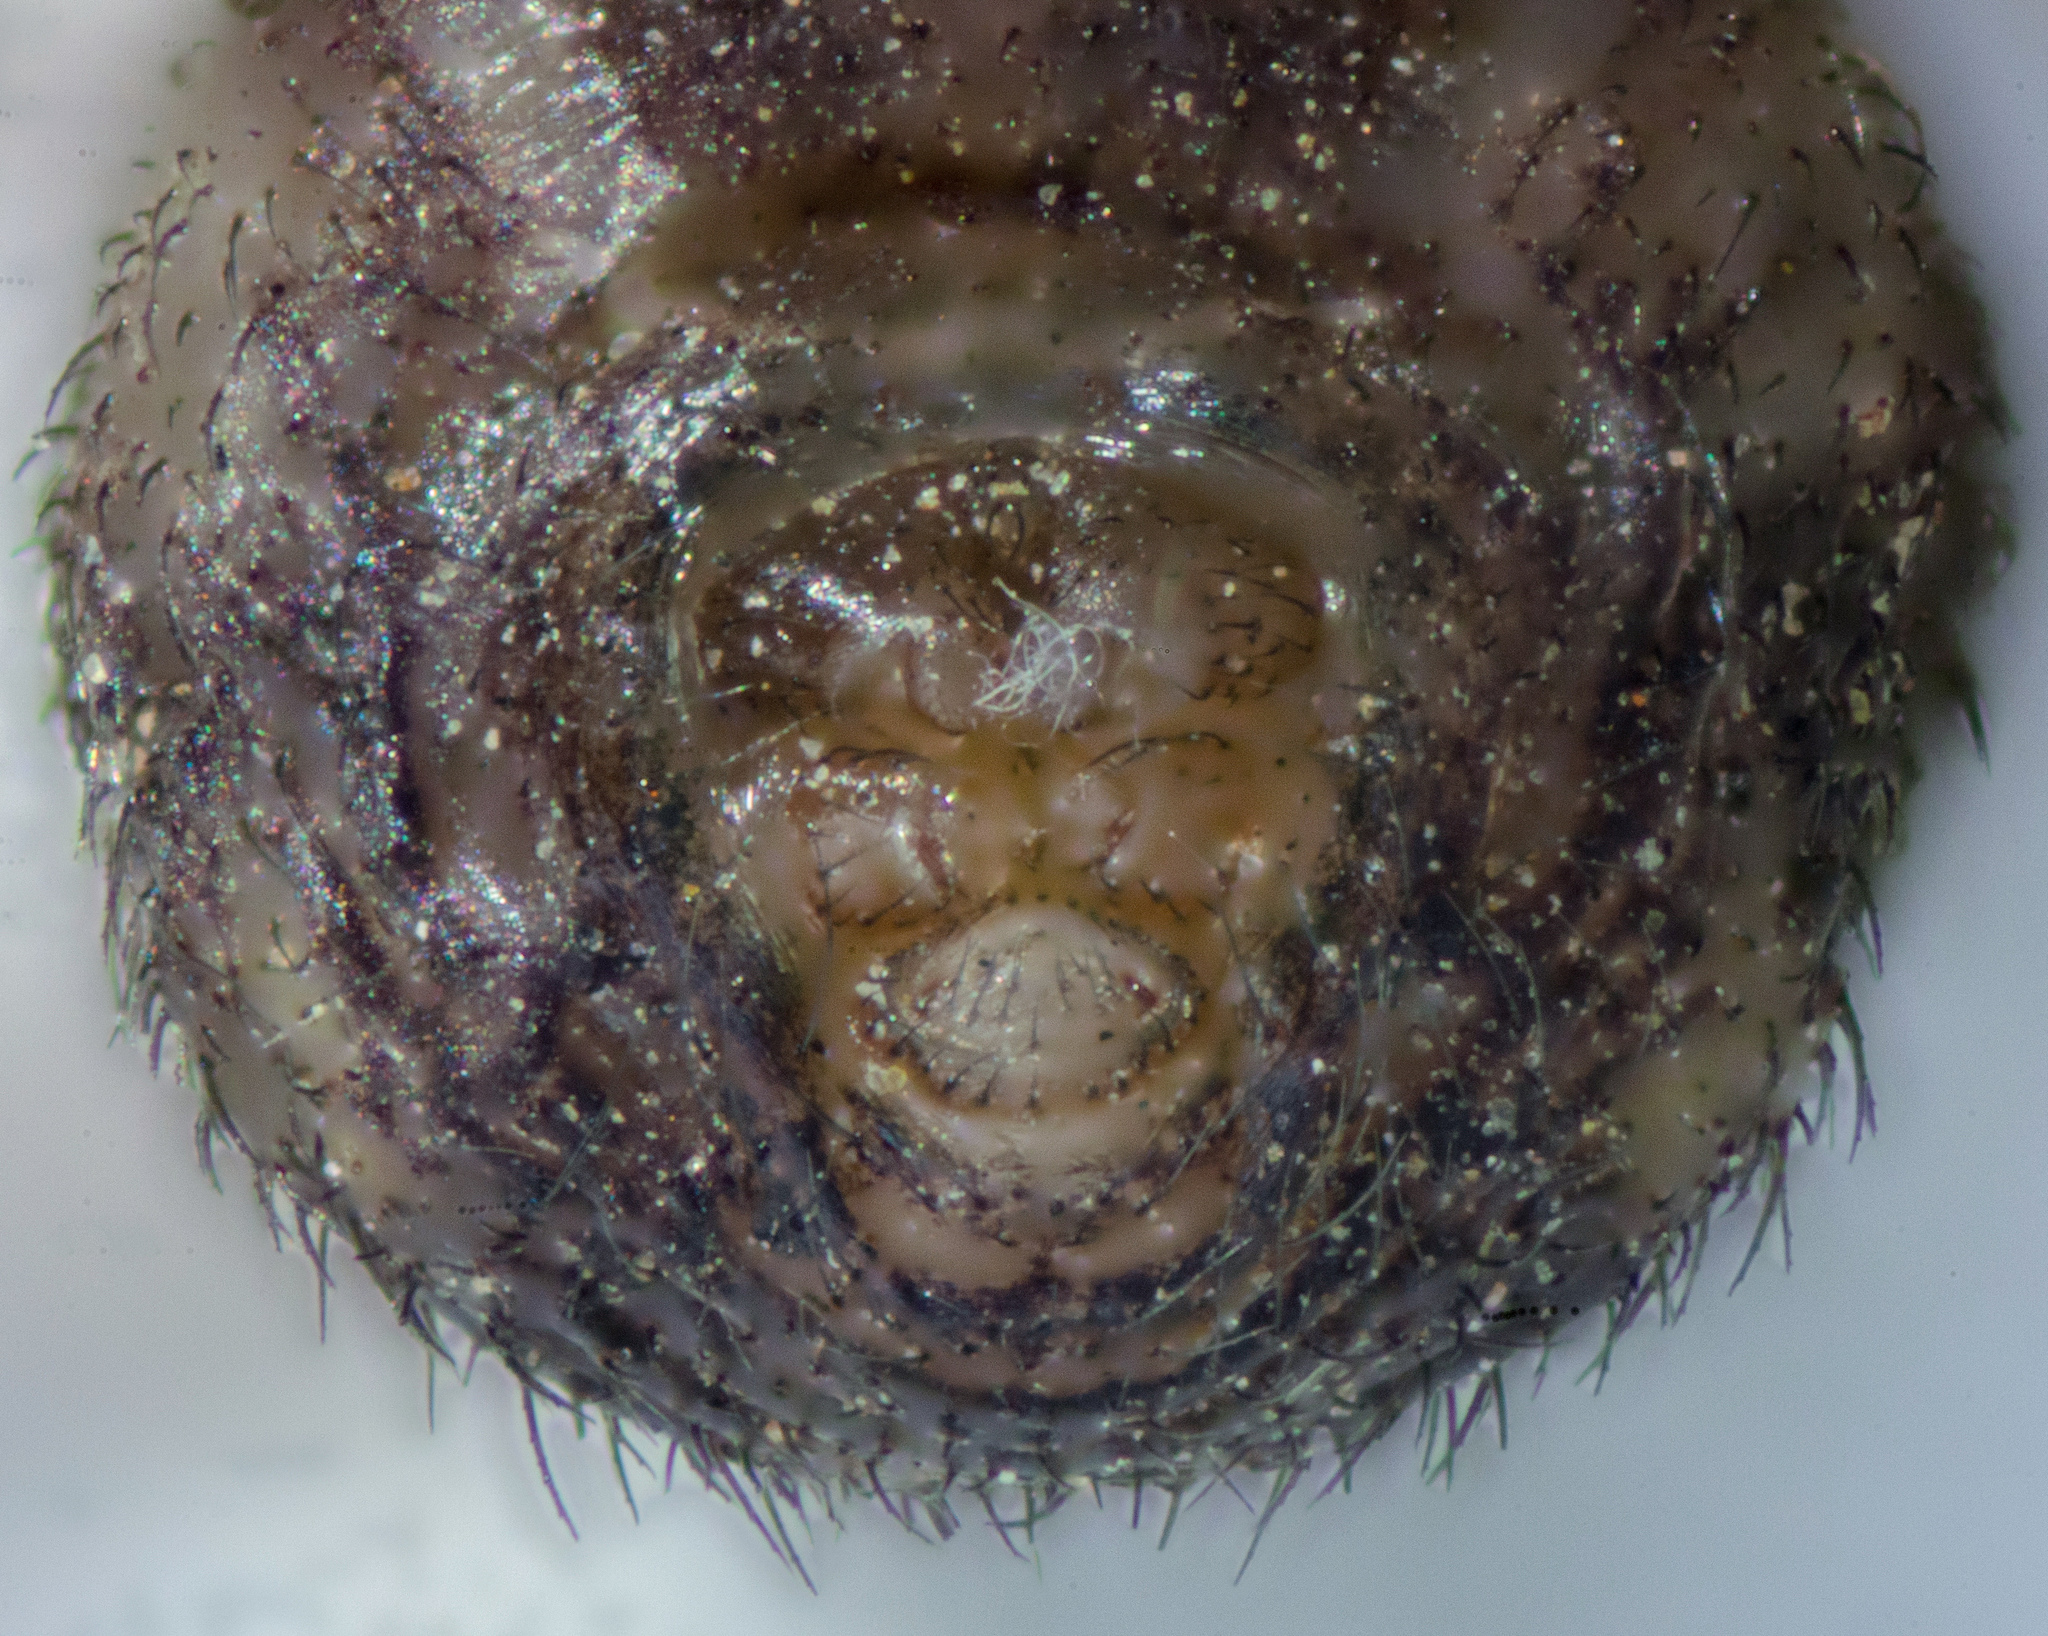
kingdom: Animalia
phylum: Arthropoda
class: Arachnida
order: Araneae
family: Theridiidae
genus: Steatoda
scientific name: Steatoda grossa
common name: False black widow
